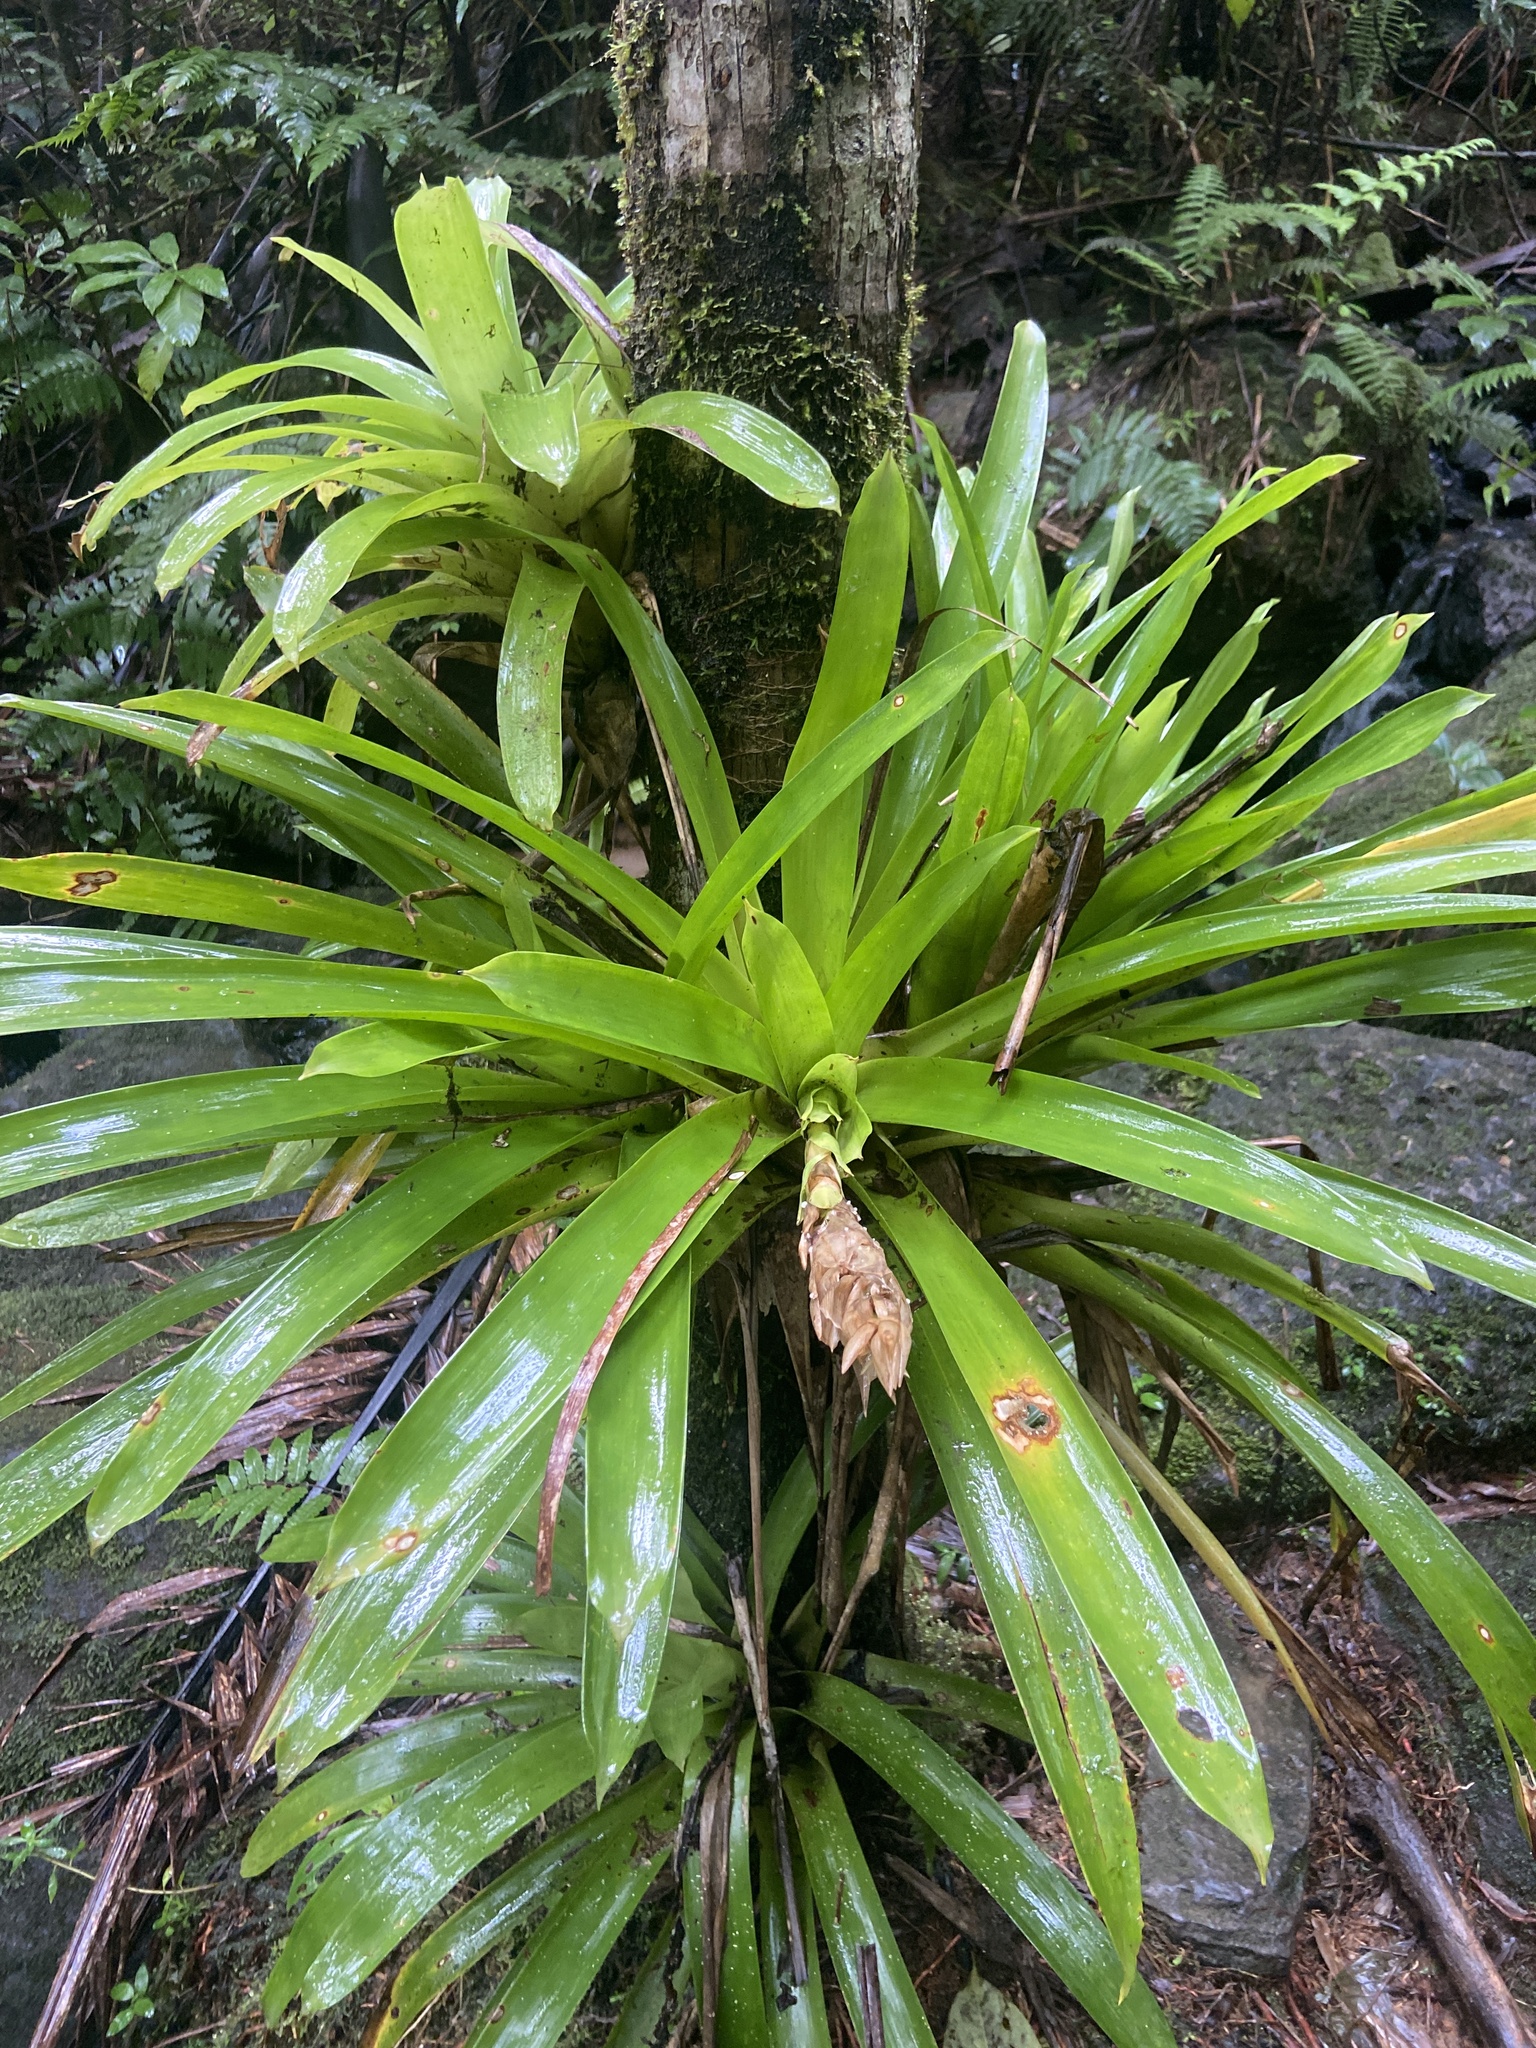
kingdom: Plantae
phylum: Tracheophyta
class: Liliopsida
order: Poales
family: Bromeliaceae
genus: Guzmania
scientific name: Guzmania berteroniana
